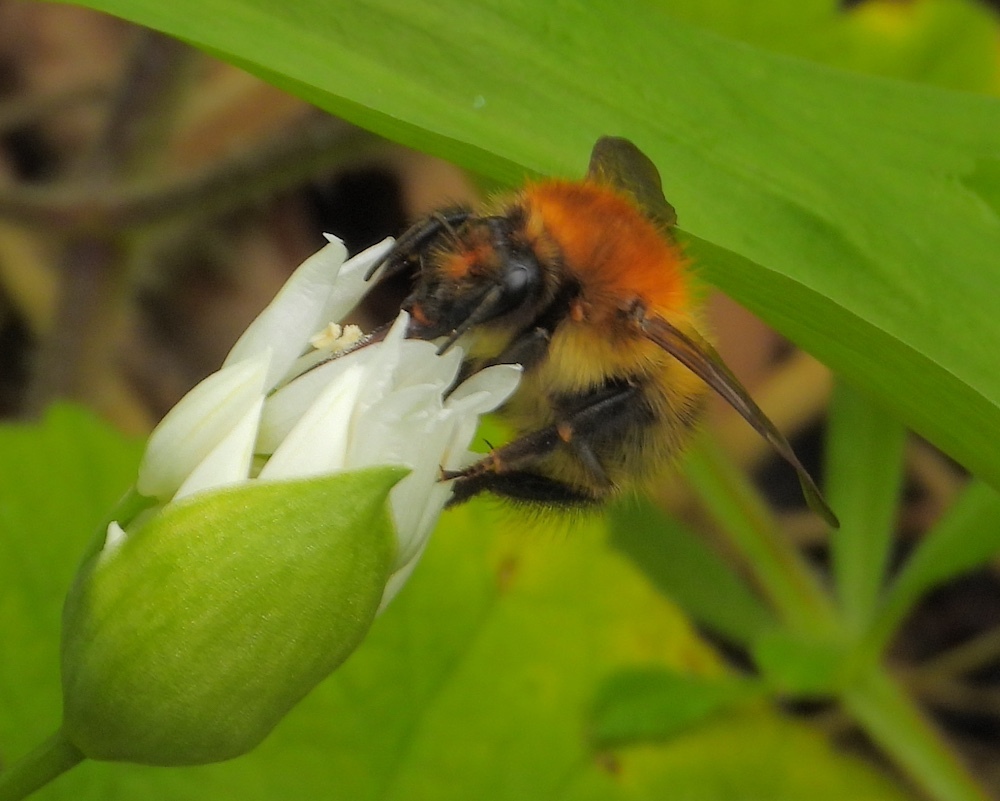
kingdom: Animalia
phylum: Arthropoda
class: Insecta
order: Hymenoptera
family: Apidae
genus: Bombus
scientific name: Bombus pascuorum
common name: Common carder bee
